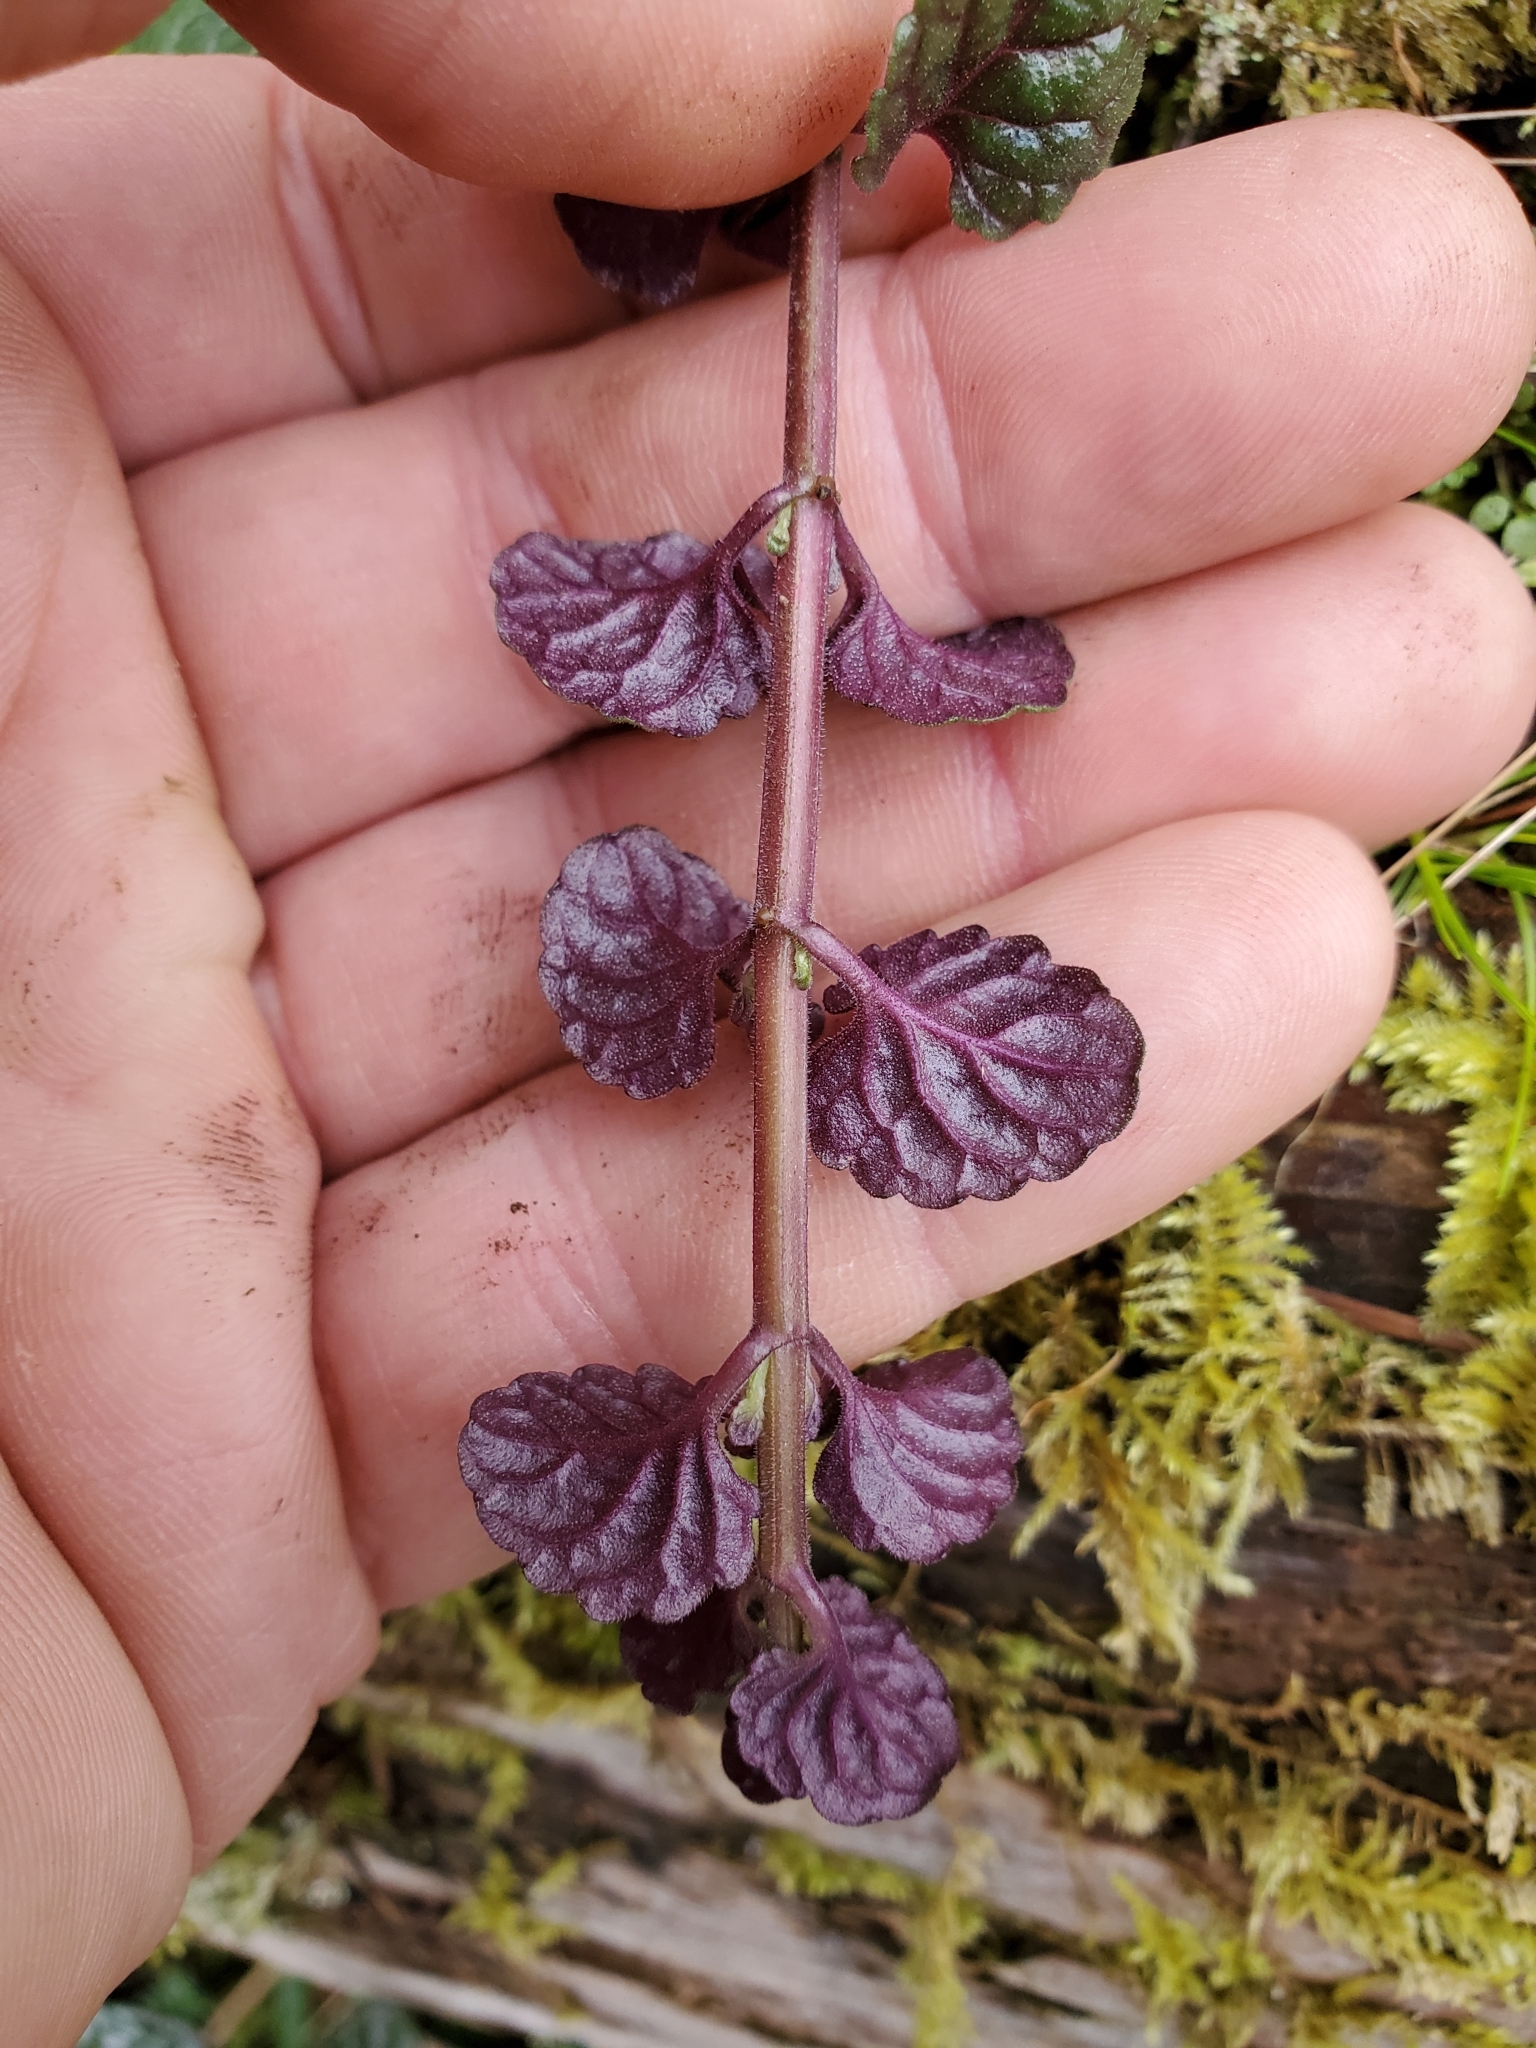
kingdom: Plantae
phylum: Tracheophyta
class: Magnoliopsida
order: Lamiales
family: Lamiaceae
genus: Micromeria
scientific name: Micromeria douglasii
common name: Yerba buena
